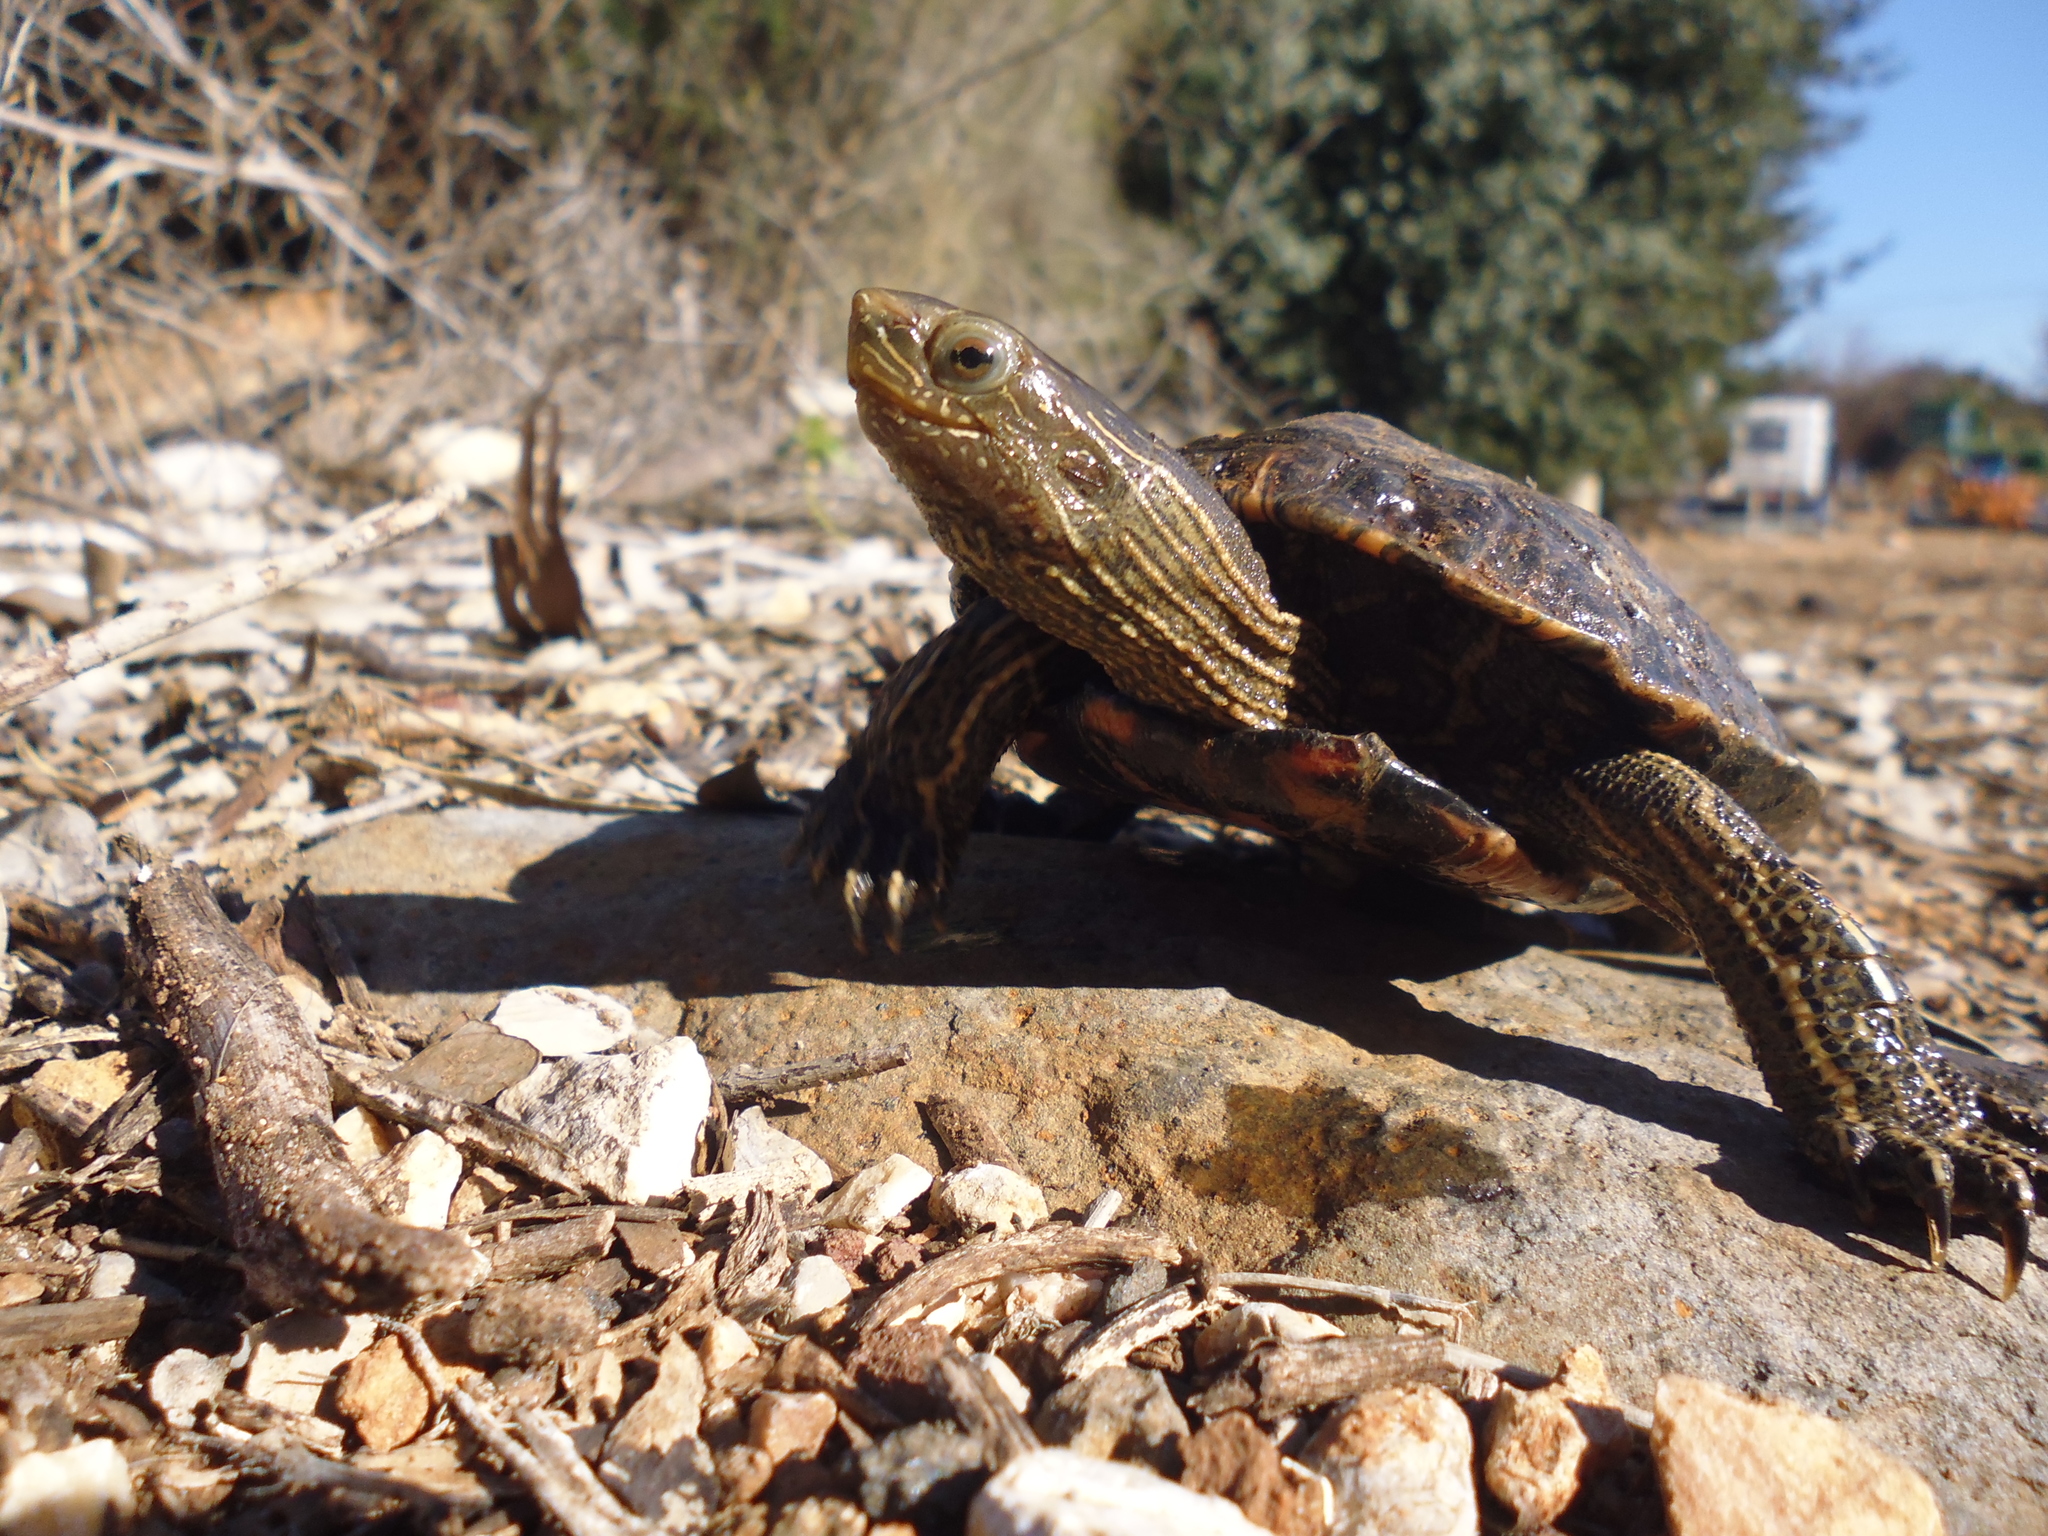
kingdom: Animalia
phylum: Chordata
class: Testudines
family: Geoemydidae
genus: Mauremys
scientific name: Mauremys rivulata
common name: Western caspian turtle
